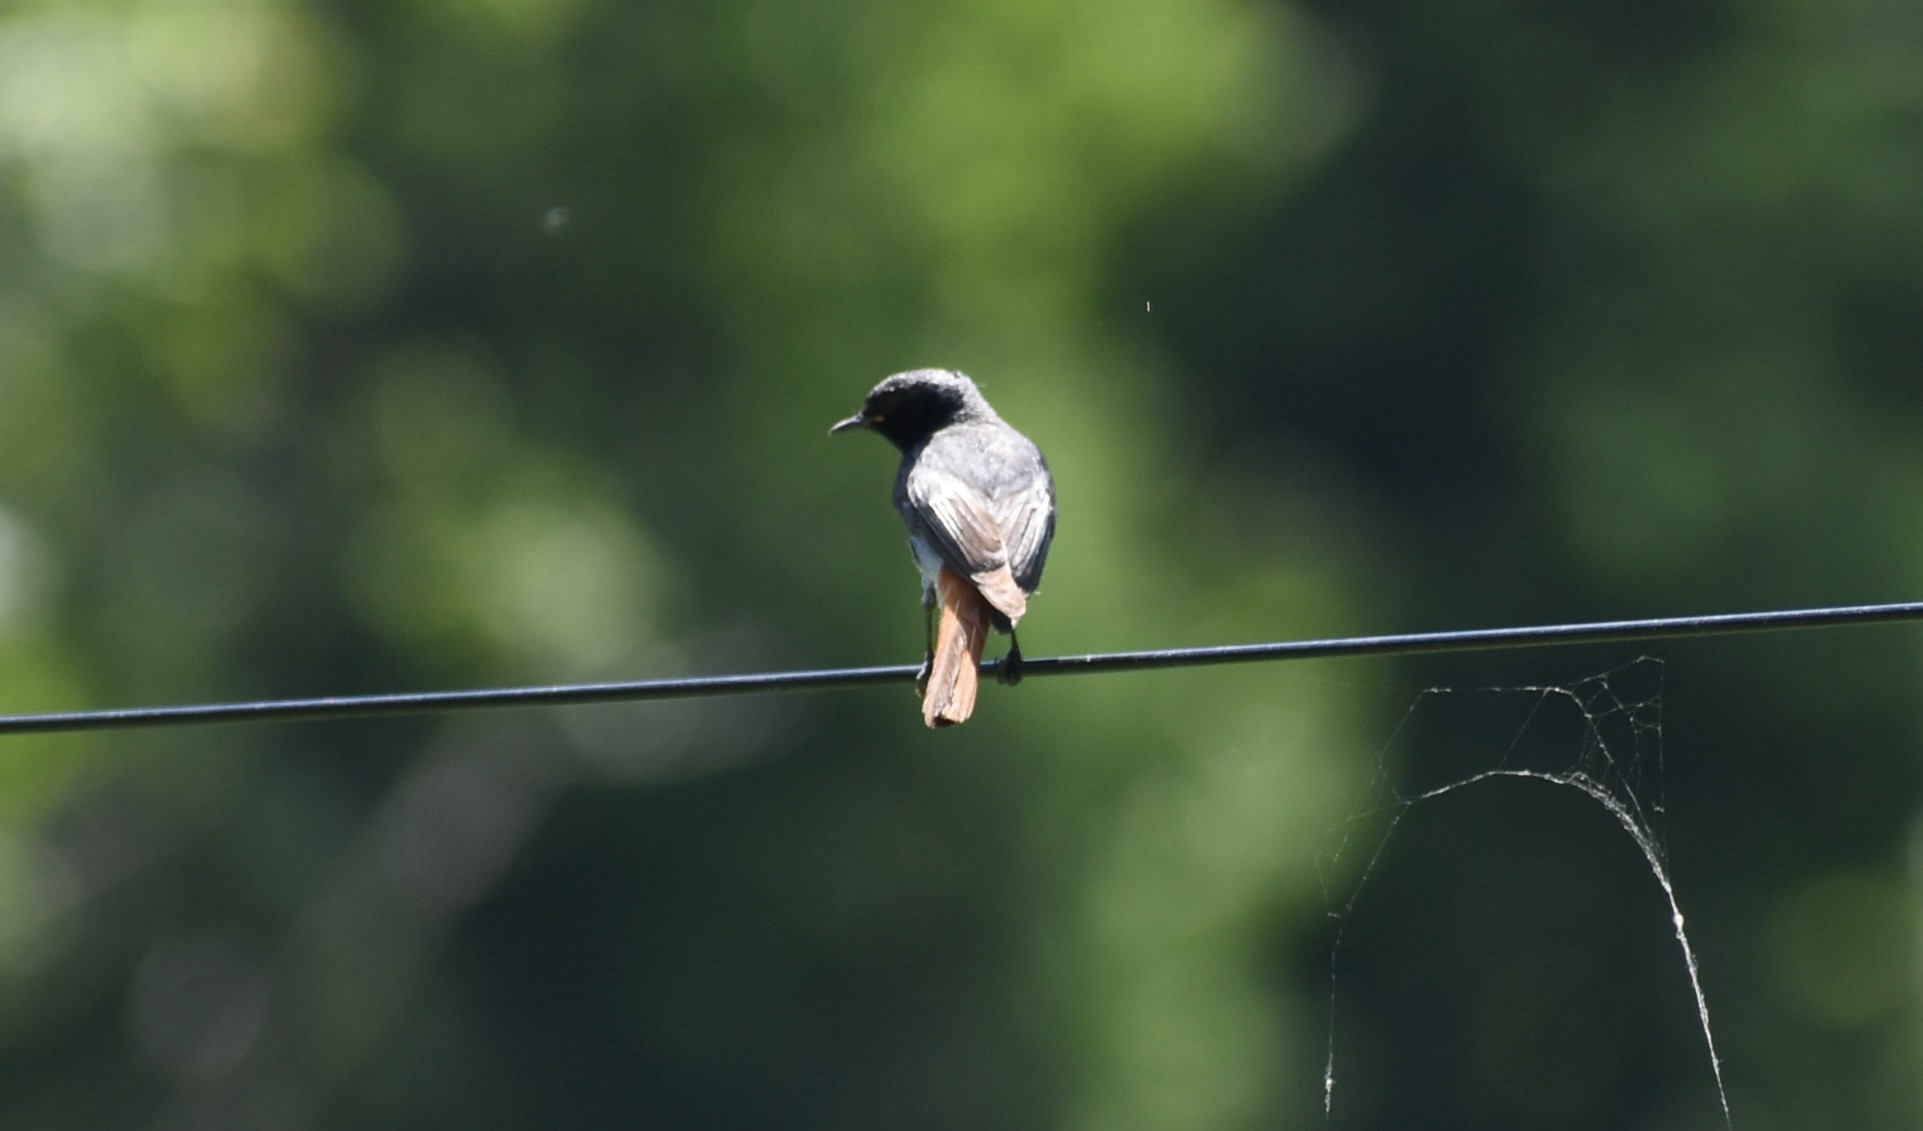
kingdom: Animalia
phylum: Chordata
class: Aves
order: Passeriformes
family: Muscicapidae
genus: Phoenicurus
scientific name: Phoenicurus ochruros
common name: Black redstart
